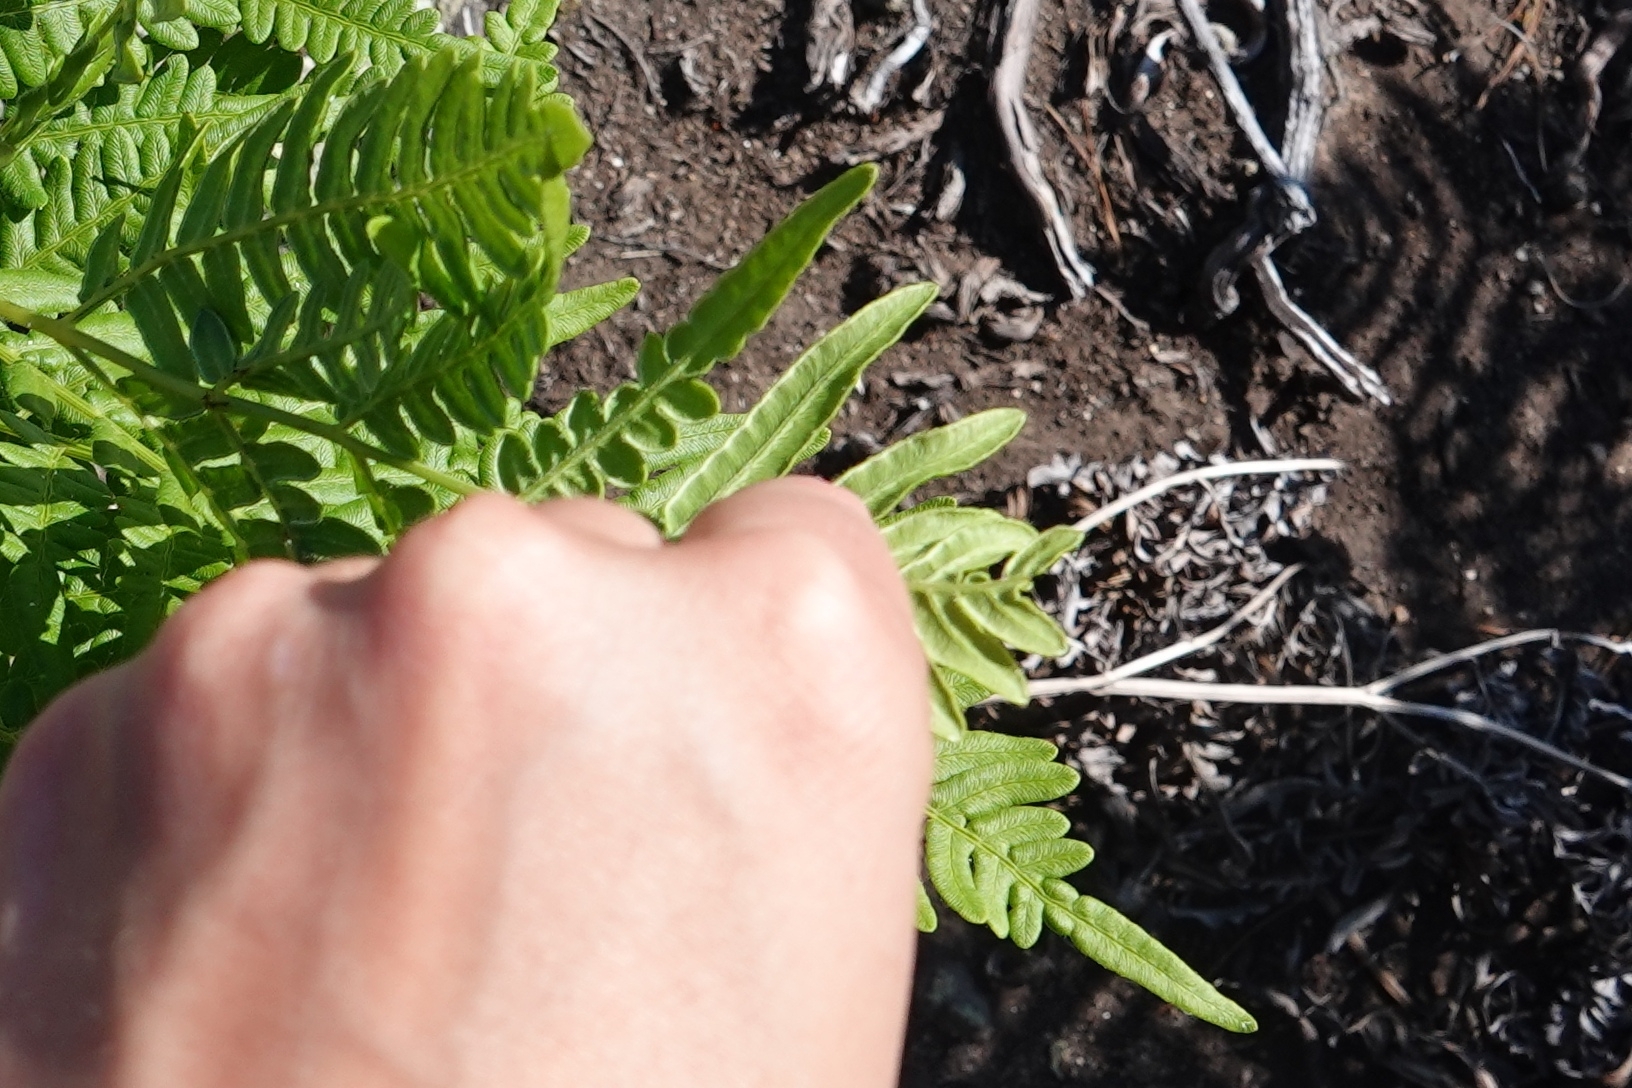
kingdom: Plantae
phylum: Tracheophyta
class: Polypodiopsida
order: Polypodiales
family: Dennstaedtiaceae
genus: Pteridium
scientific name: Pteridium aquilinum
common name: Bracken
